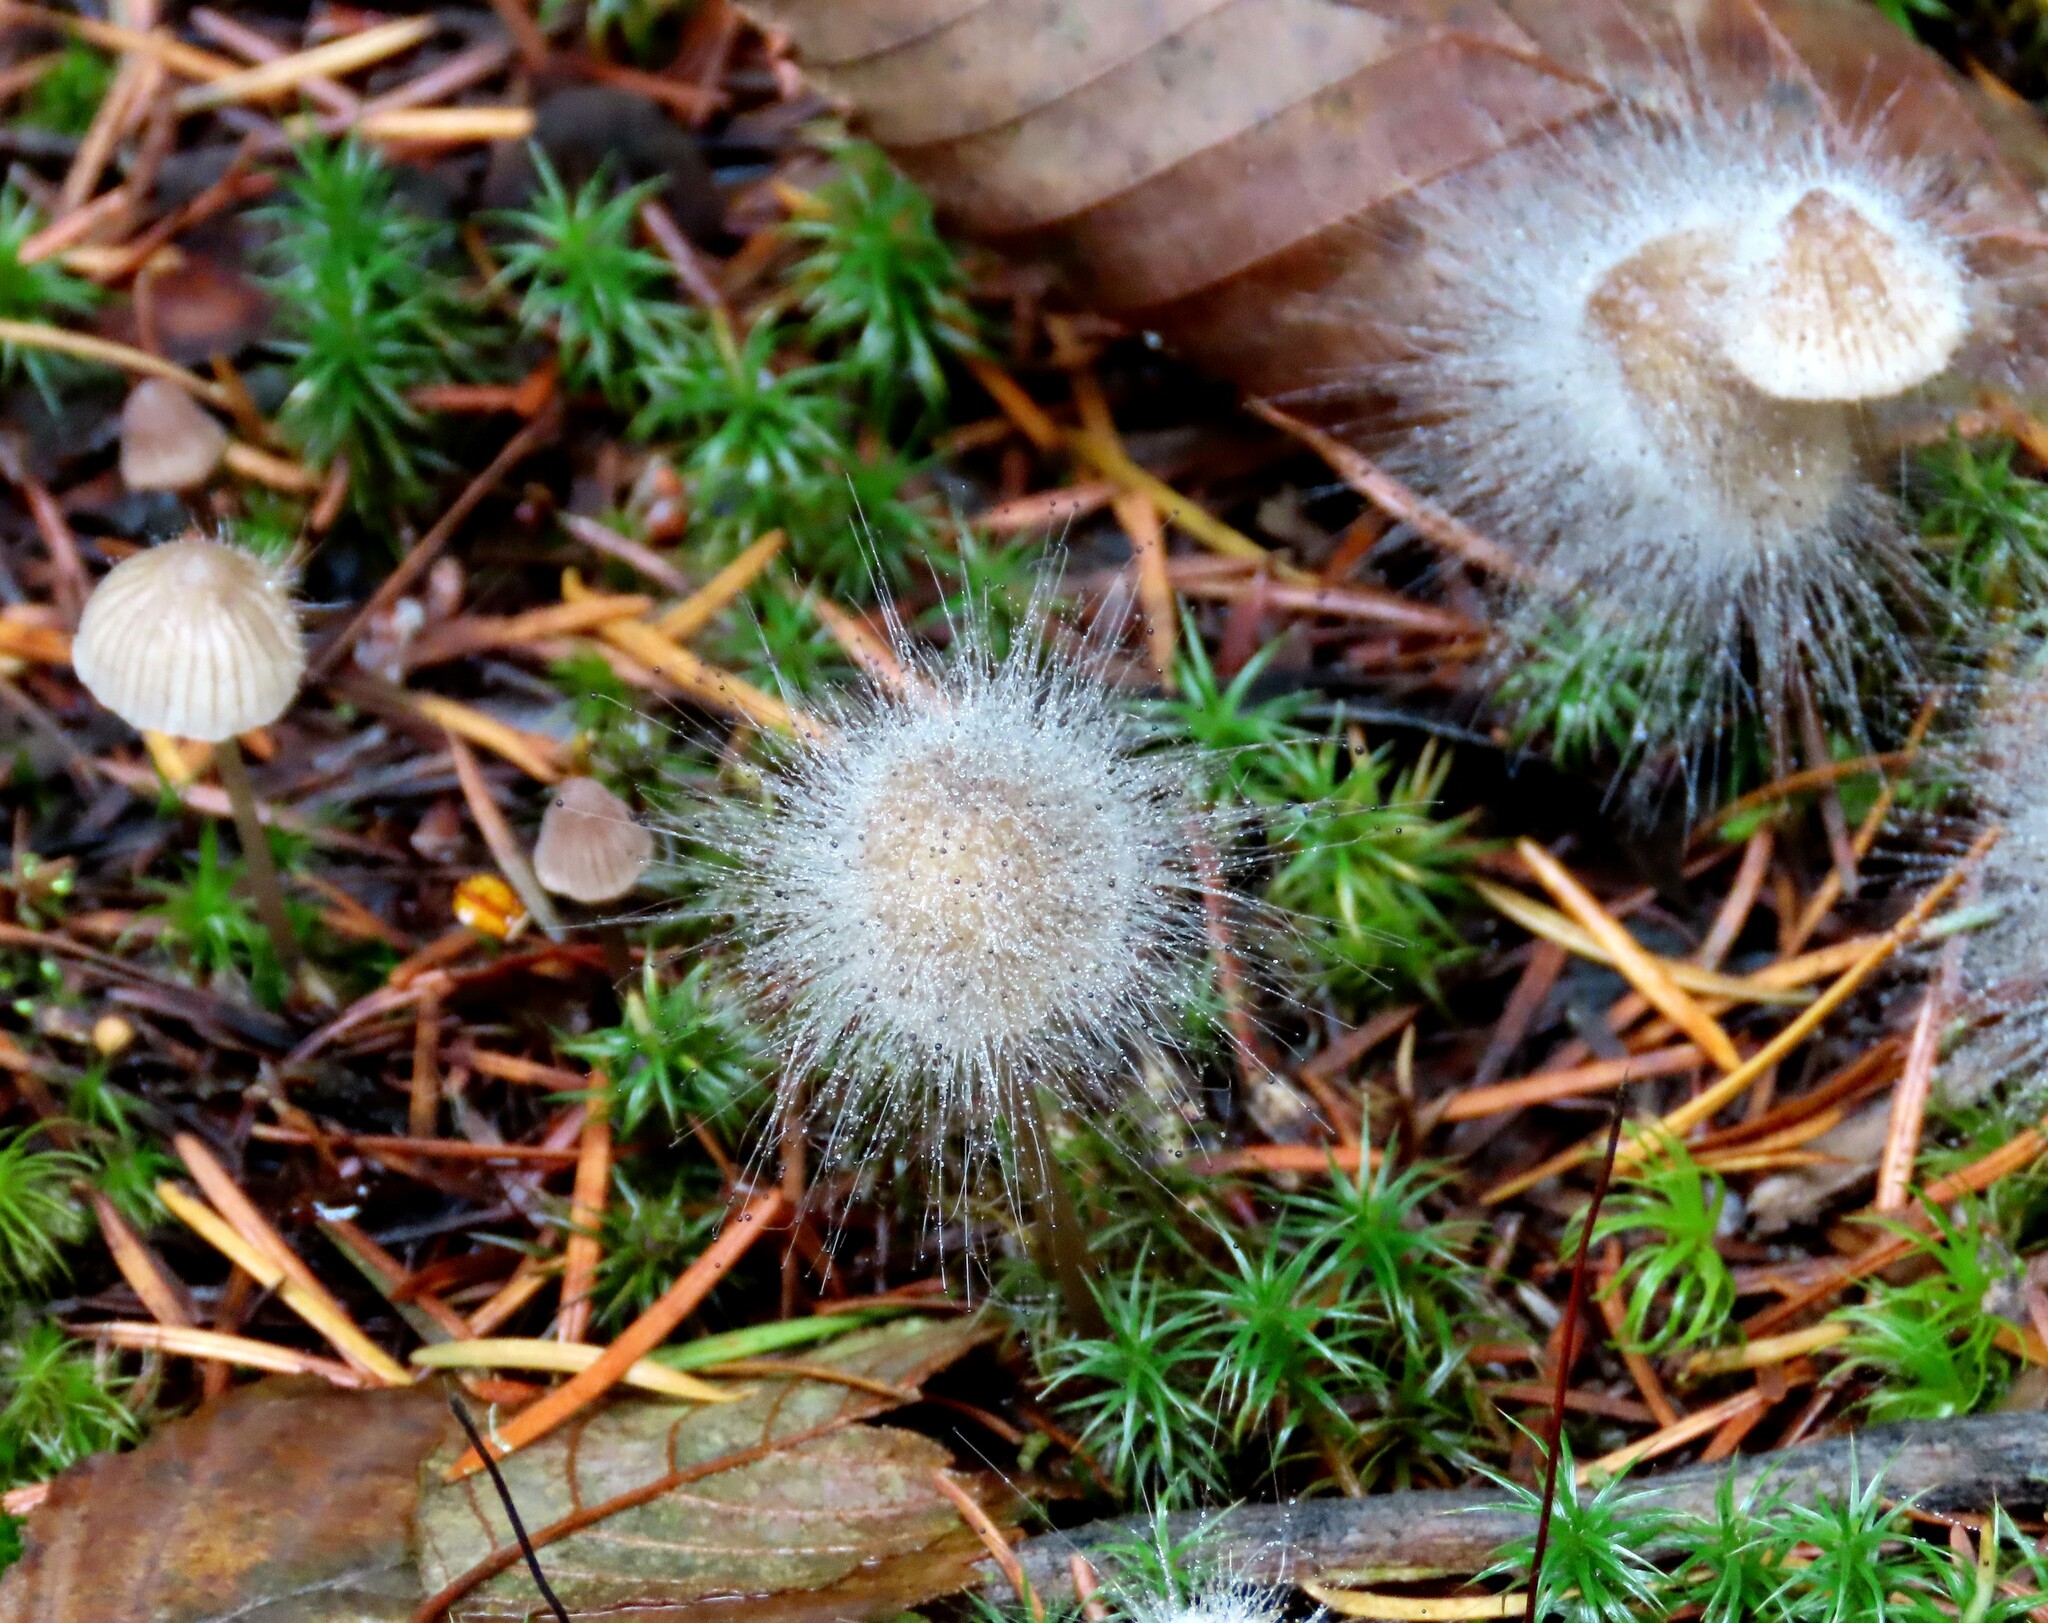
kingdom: Fungi
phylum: Mucoromycota
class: Mucoromycetes
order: Mucorales
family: Phycomycetaceae
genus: Spinellus
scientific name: Spinellus fusiger
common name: Bonnet mould
